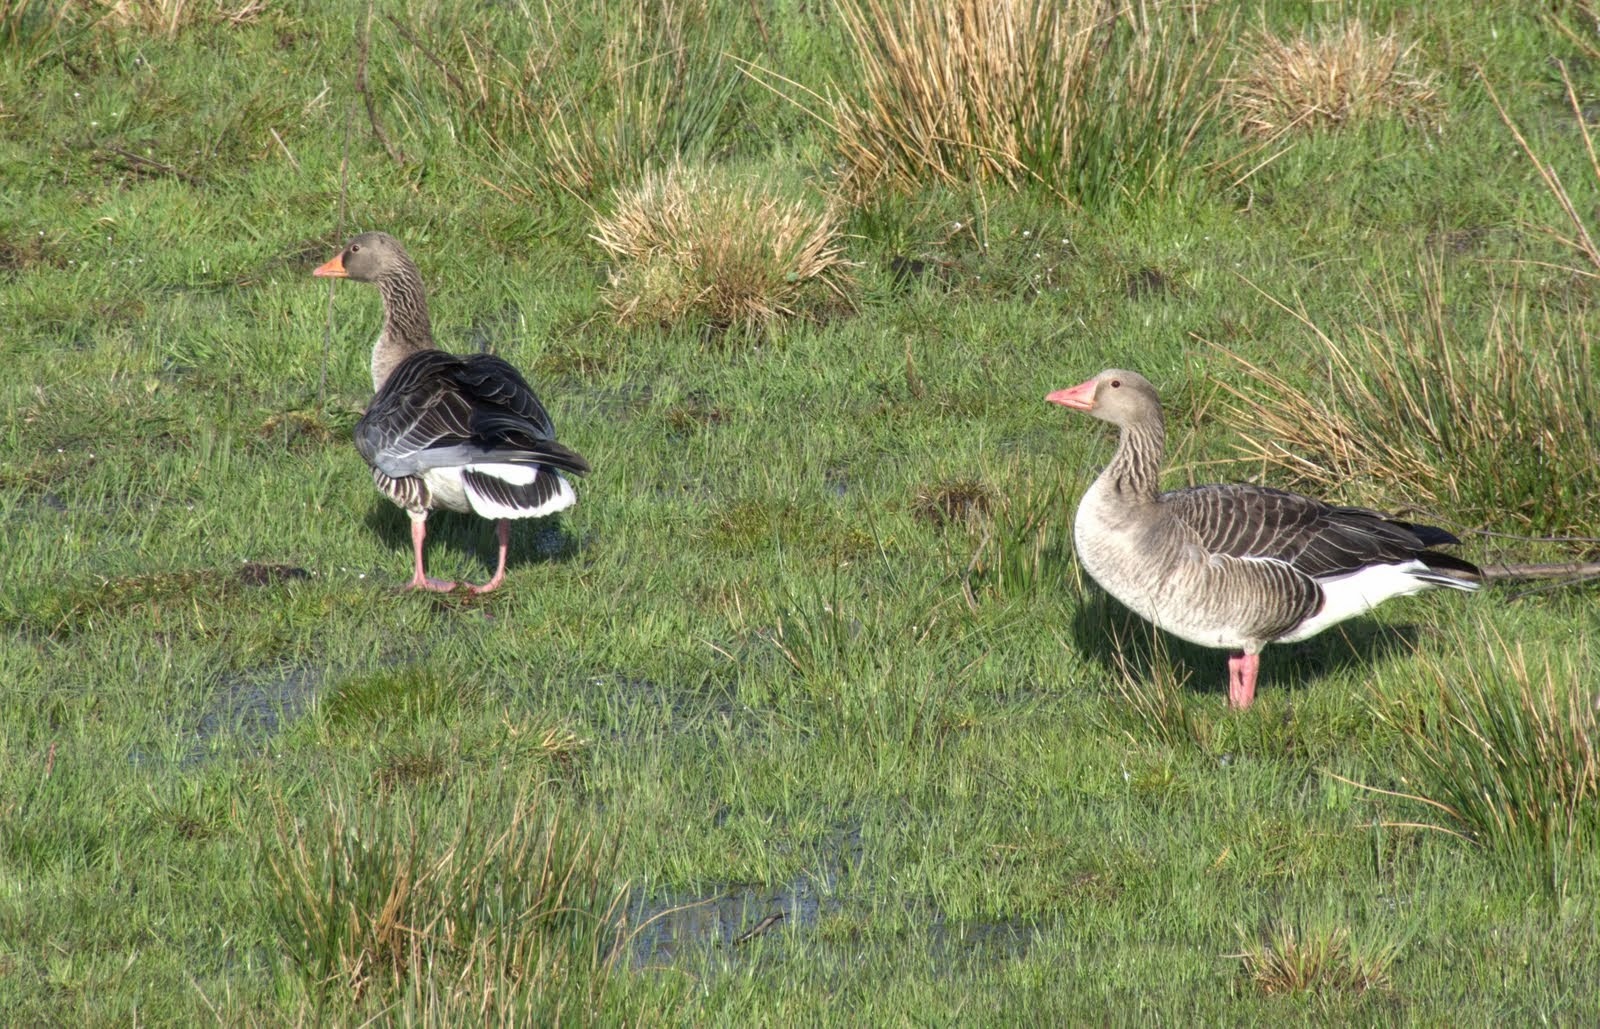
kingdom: Animalia
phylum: Chordata
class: Aves
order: Anseriformes
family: Anatidae
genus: Anser
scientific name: Anser anser
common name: Greylag goose
